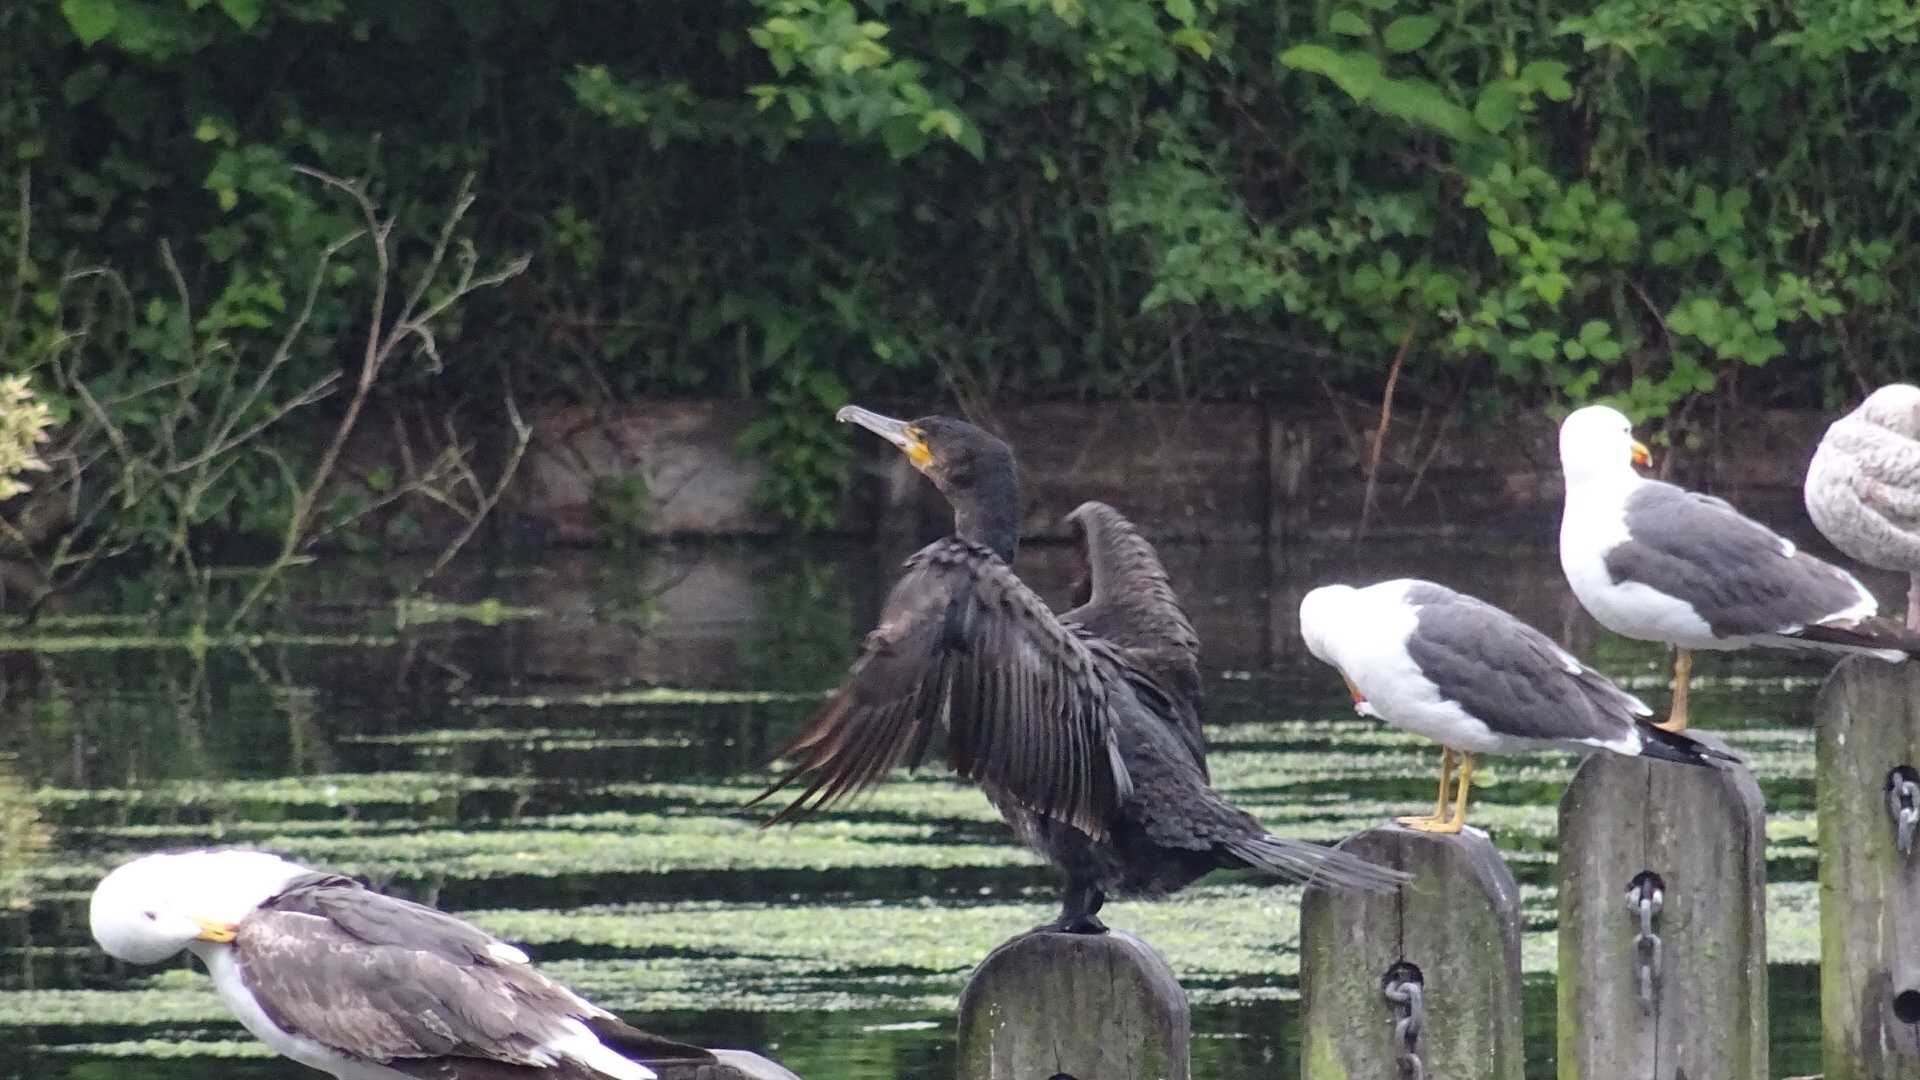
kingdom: Animalia
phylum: Chordata
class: Aves
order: Suliformes
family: Phalacrocoracidae
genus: Phalacrocorax
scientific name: Phalacrocorax carbo
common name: Great cormorant
